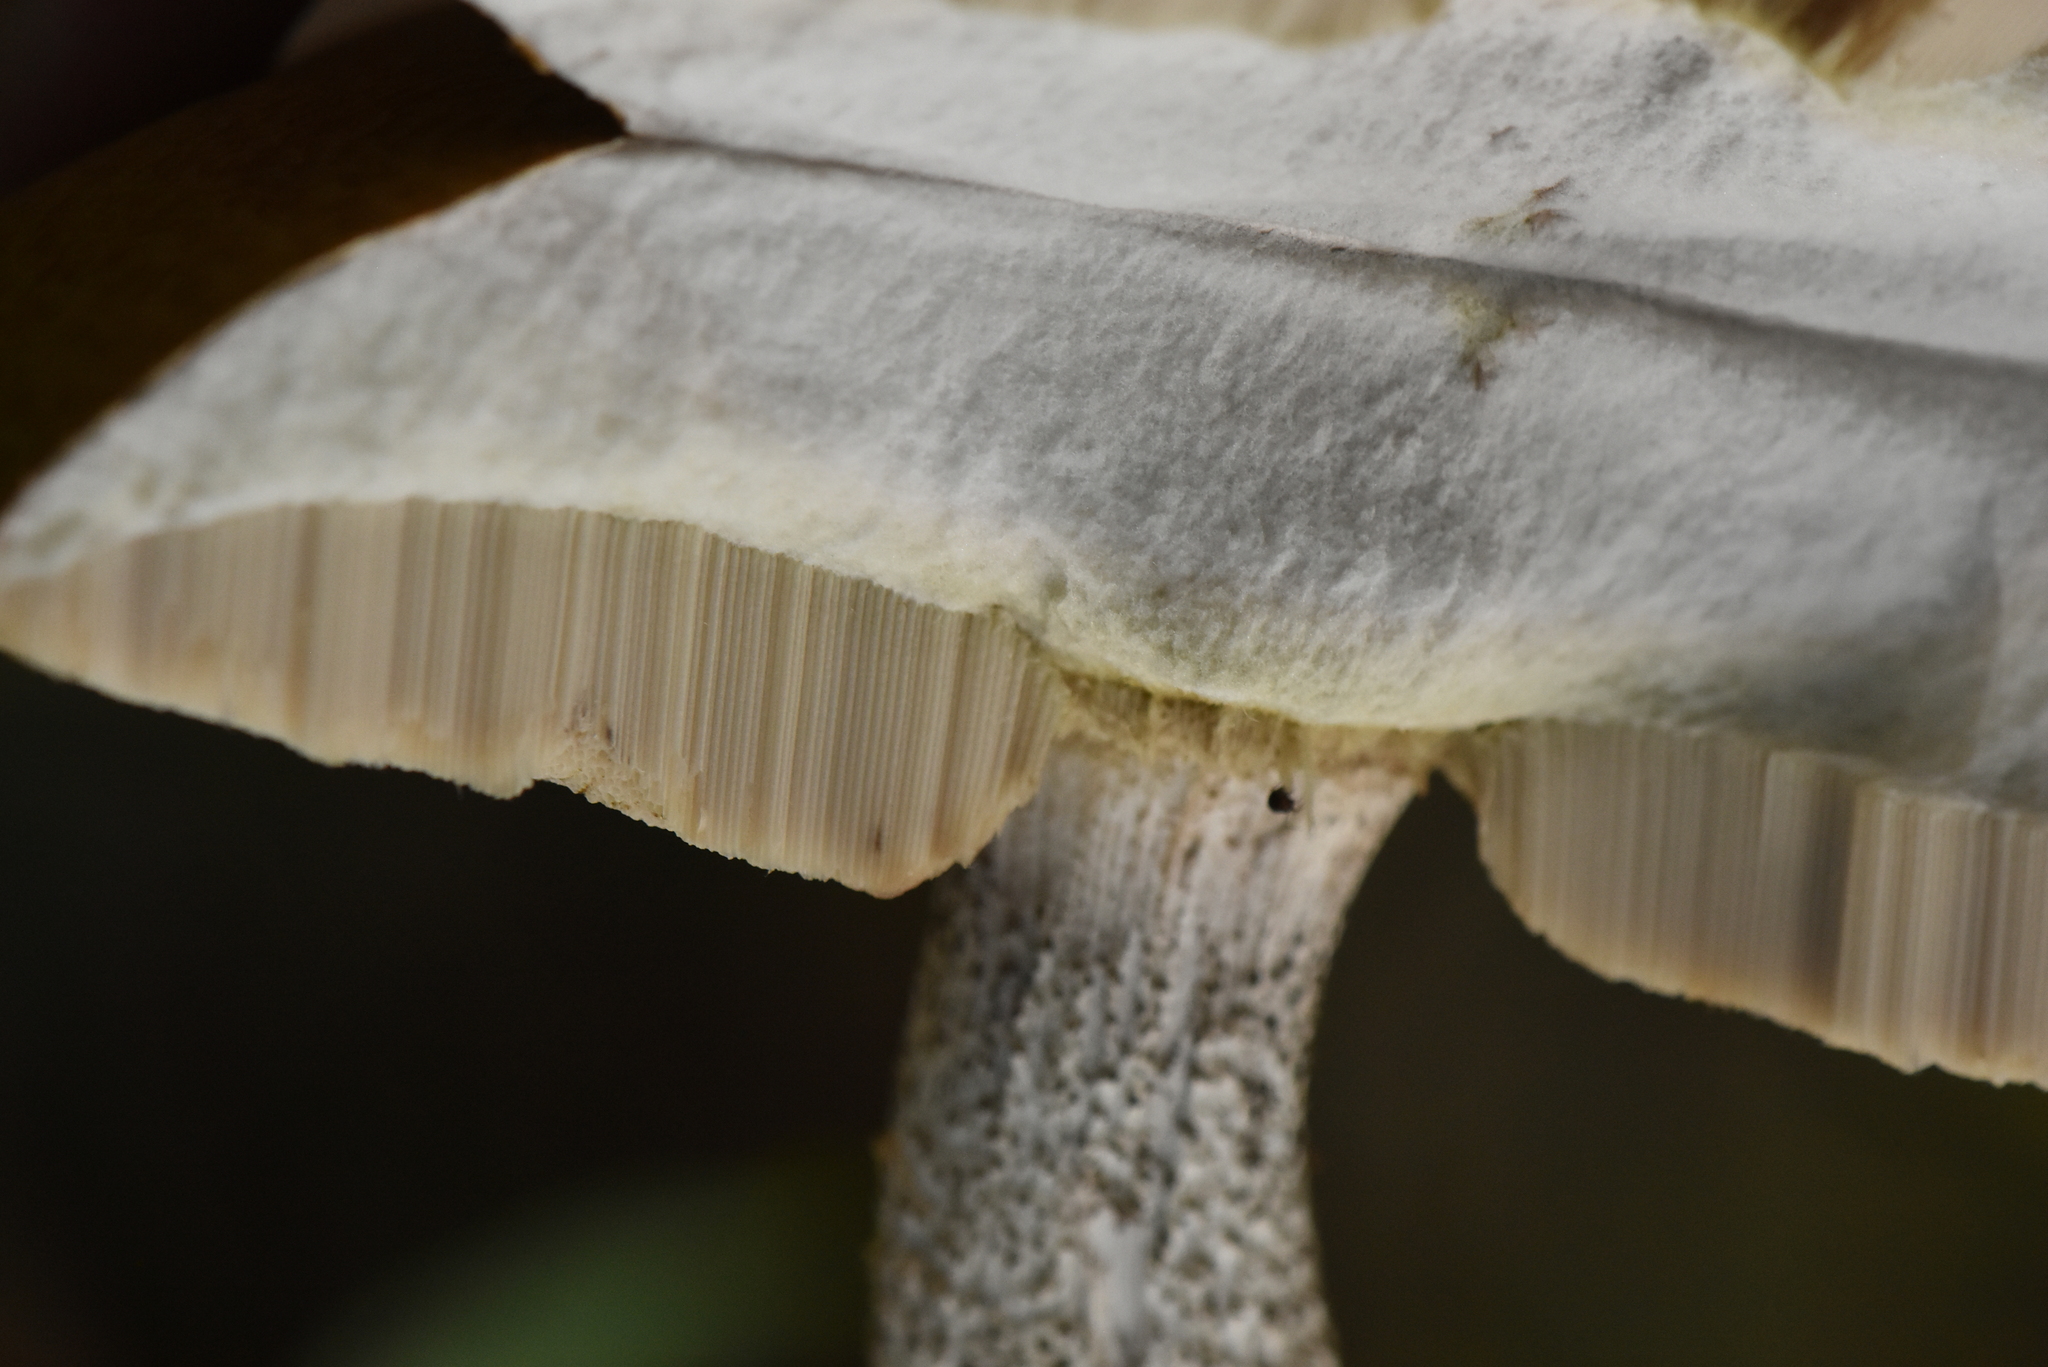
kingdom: Fungi
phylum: Basidiomycota
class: Agaricomycetes
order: Boletales
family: Boletaceae
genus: Leccinum
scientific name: Leccinum versipelle
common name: Orange birch bolete
